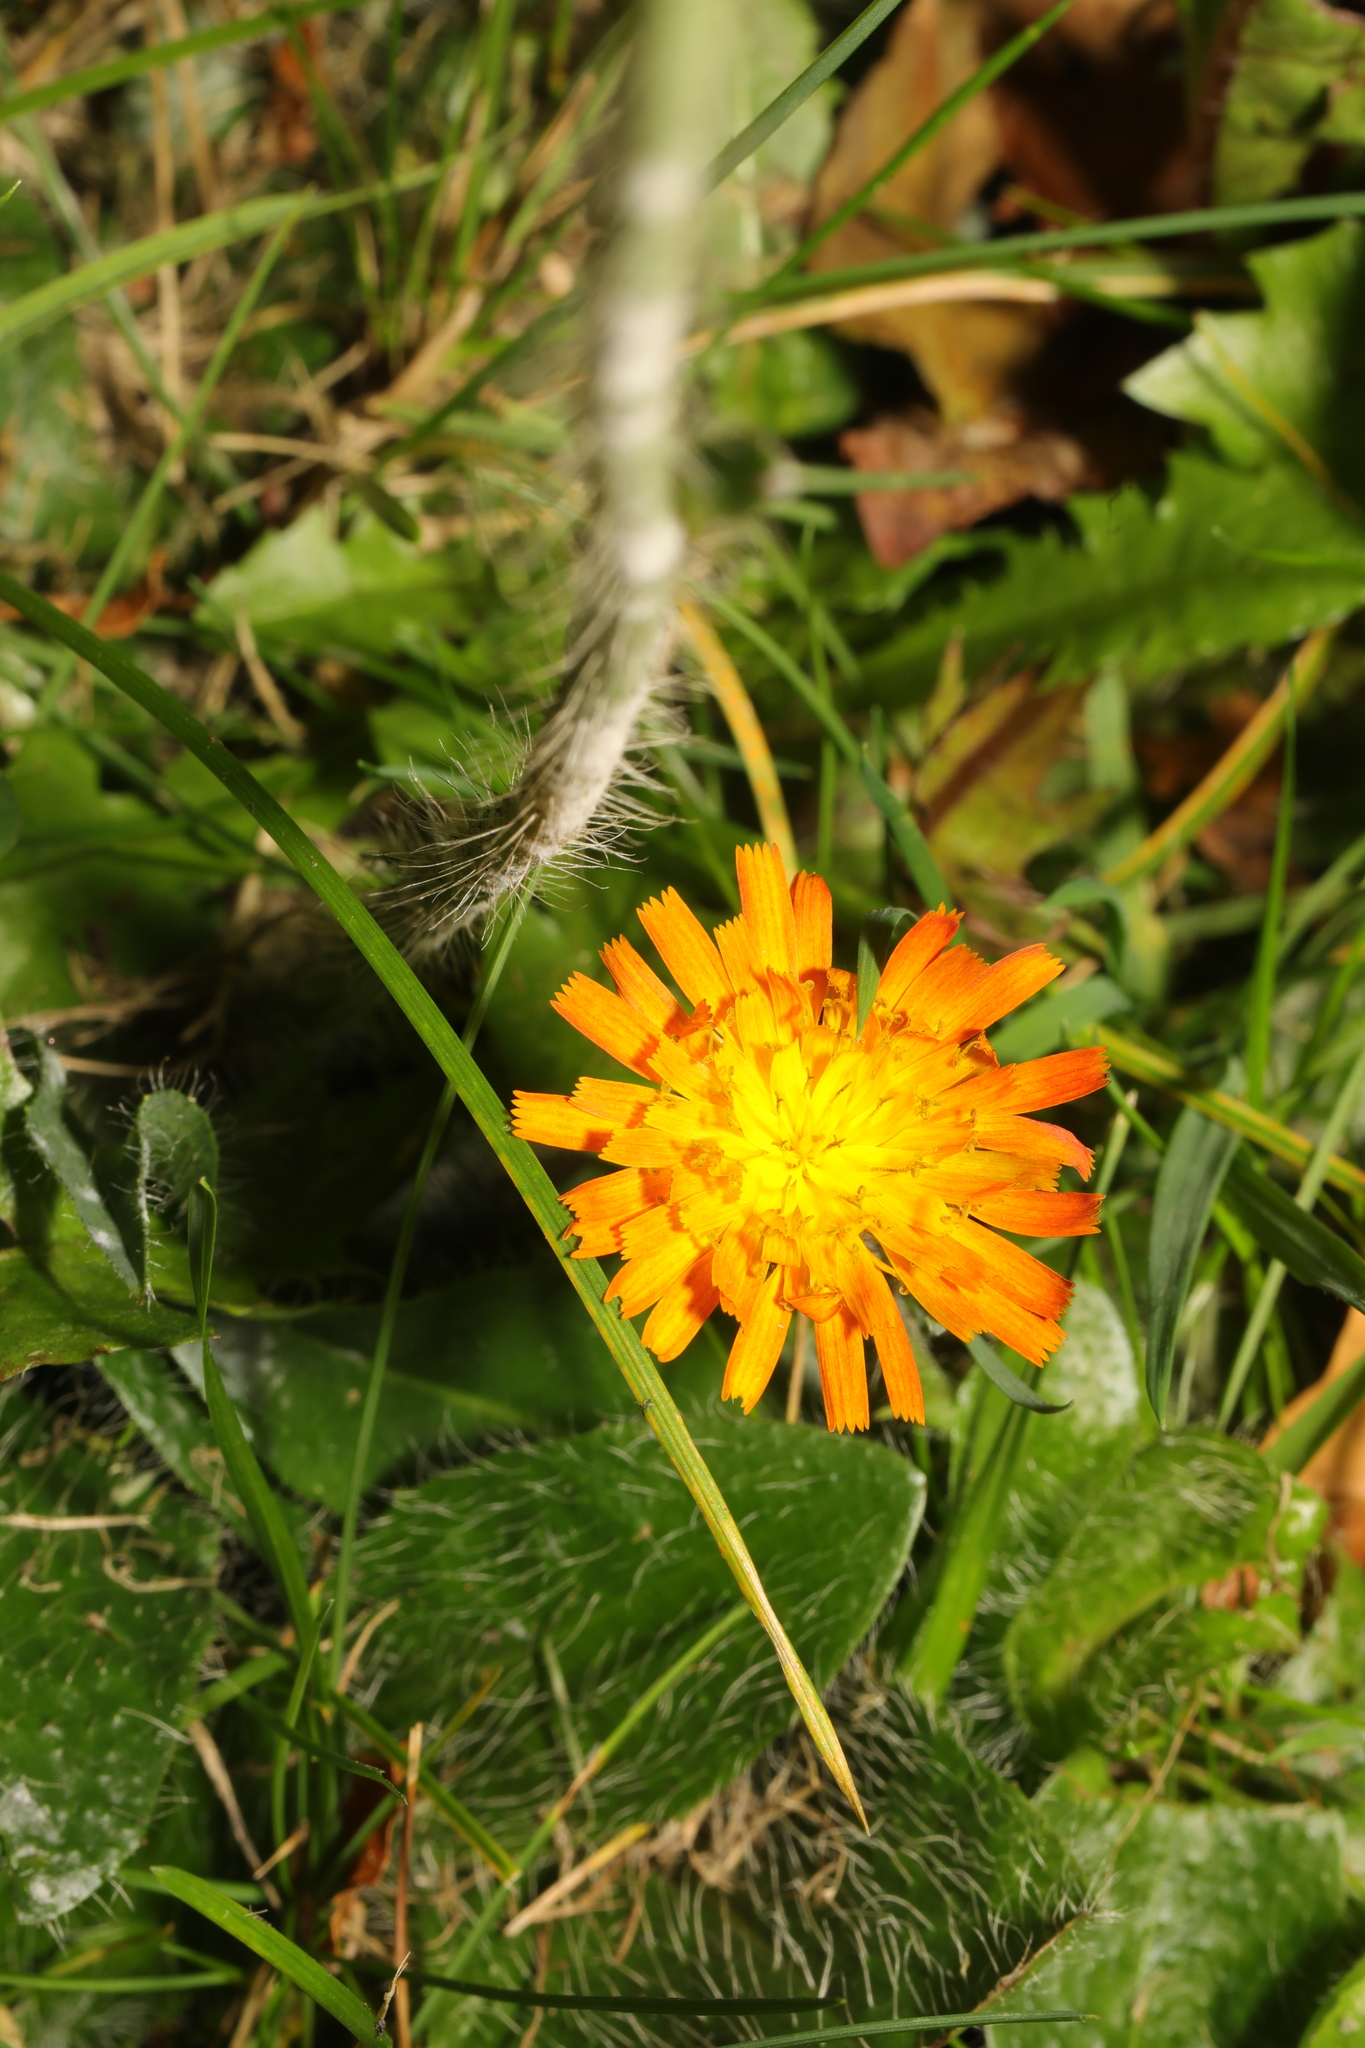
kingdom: Plantae
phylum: Tracheophyta
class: Magnoliopsida
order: Asterales
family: Asteraceae
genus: Pilosella
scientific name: Pilosella aurantiaca
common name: Fox-and-cubs
